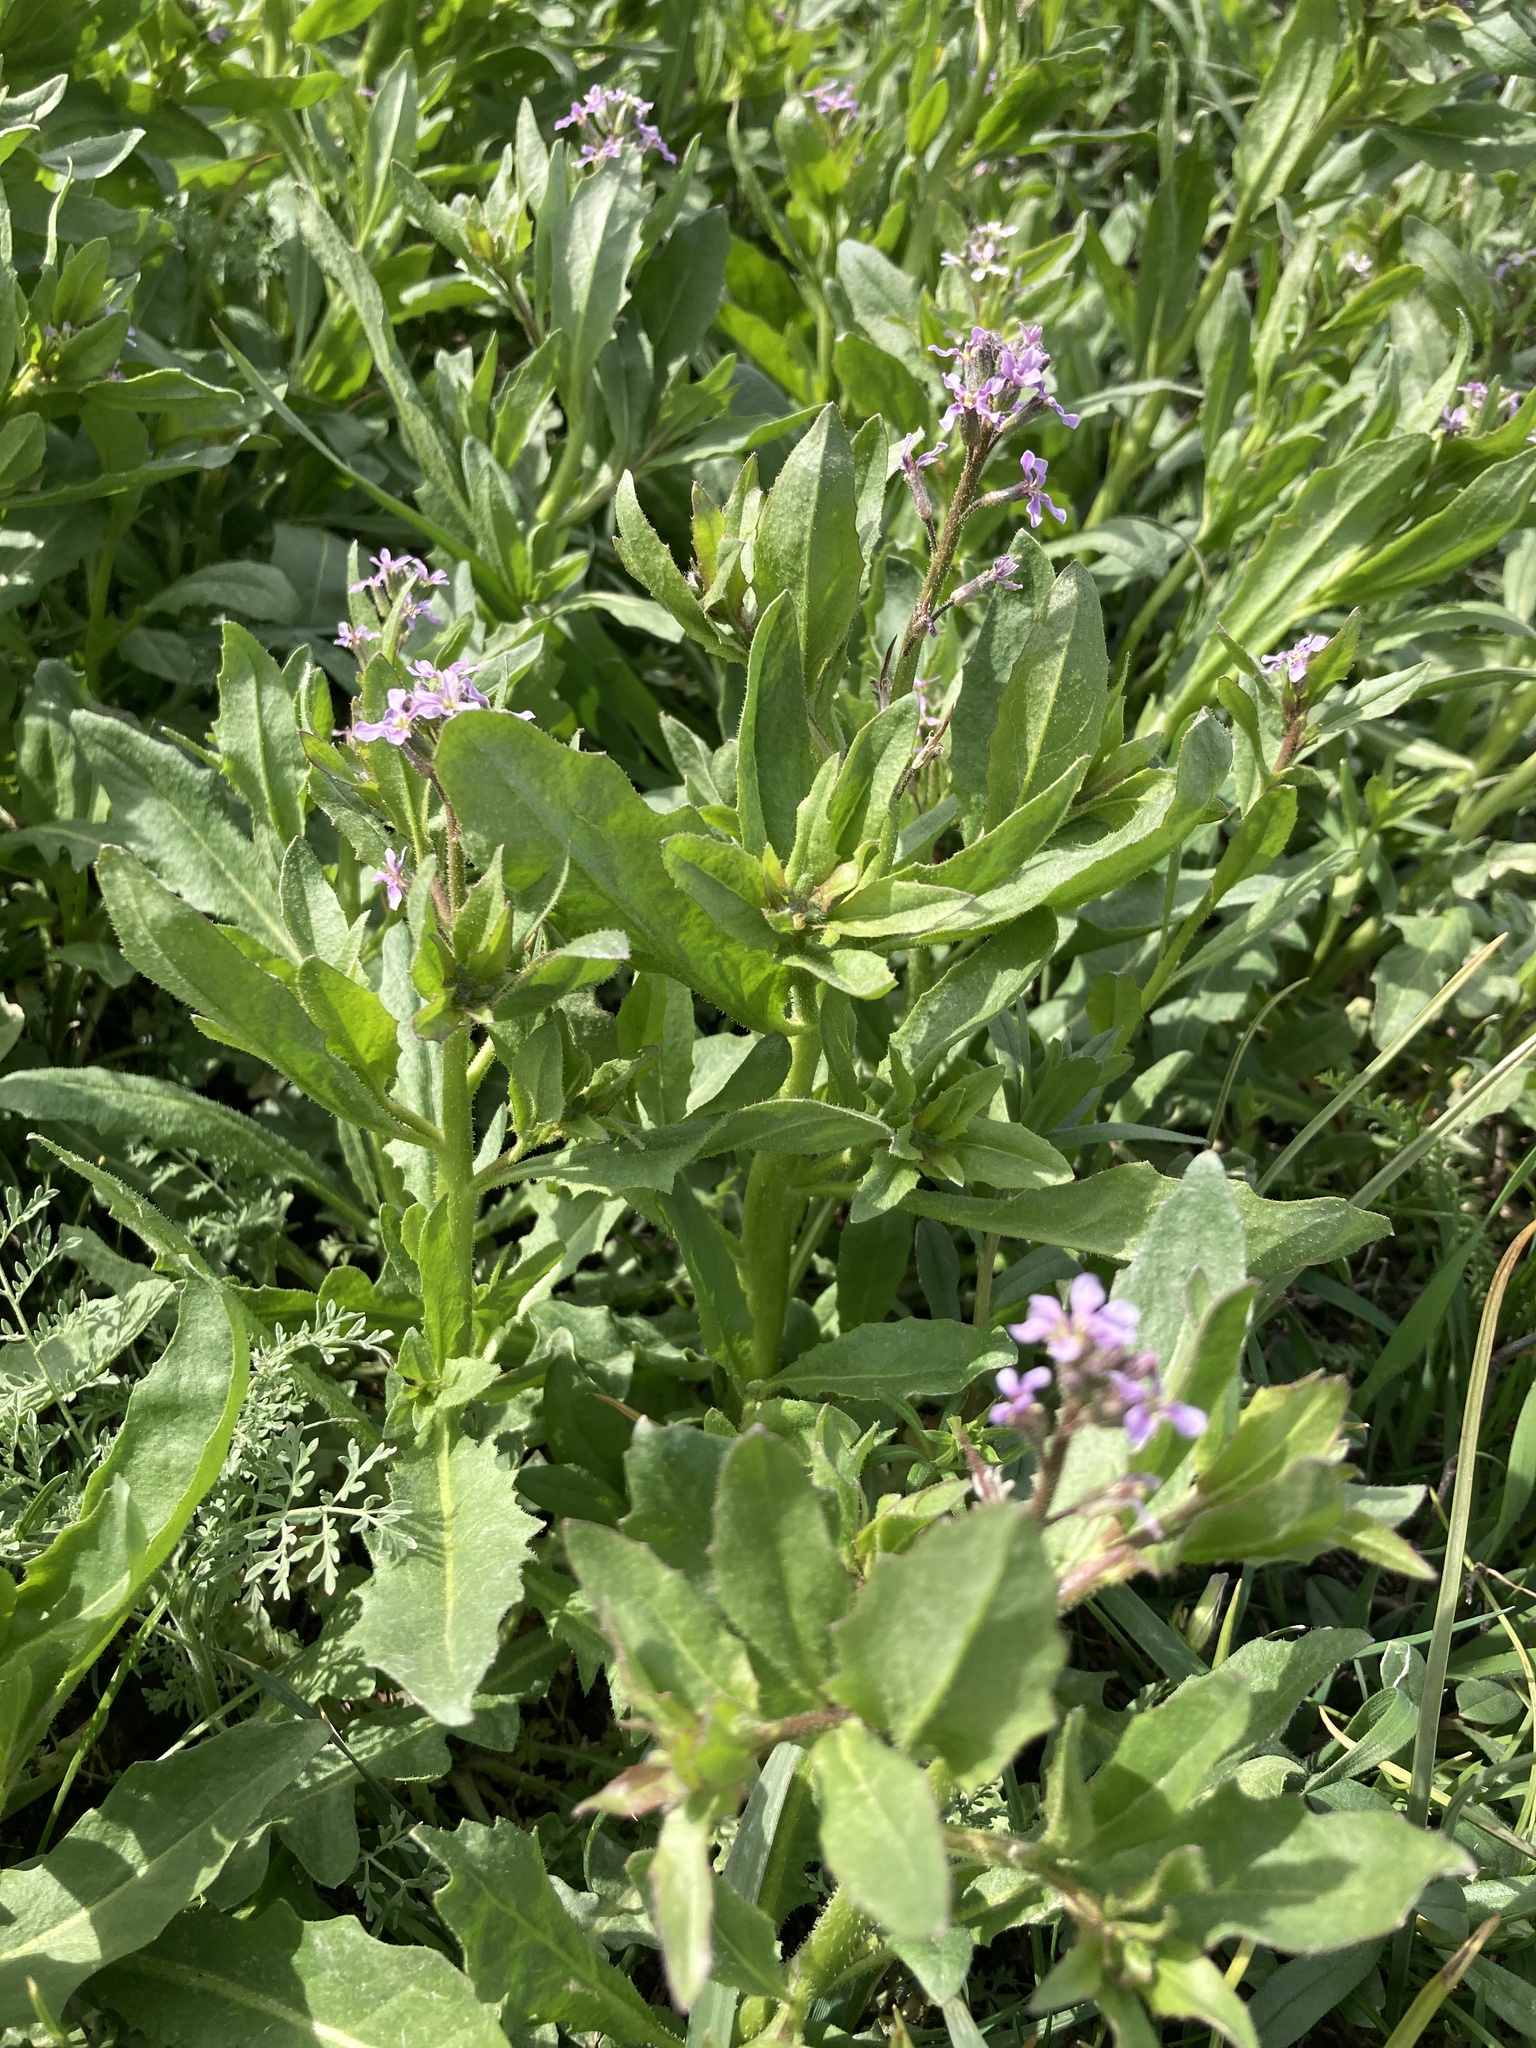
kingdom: Plantae
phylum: Tracheophyta
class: Magnoliopsida
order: Brassicales
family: Brassicaceae
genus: Chorispora
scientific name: Chorispora tenella
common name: Crossflower
